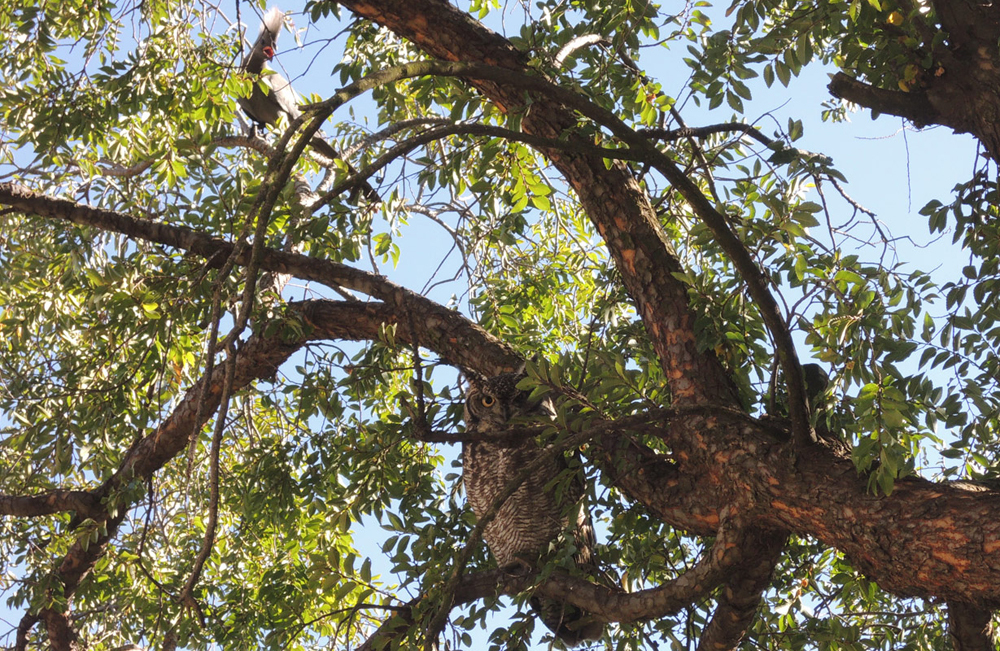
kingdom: Animalia
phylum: Chordata
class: Aves
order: Strigiformes
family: Strigidae
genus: Bubo
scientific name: Bubo africanus
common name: Spotted eagle-owl
